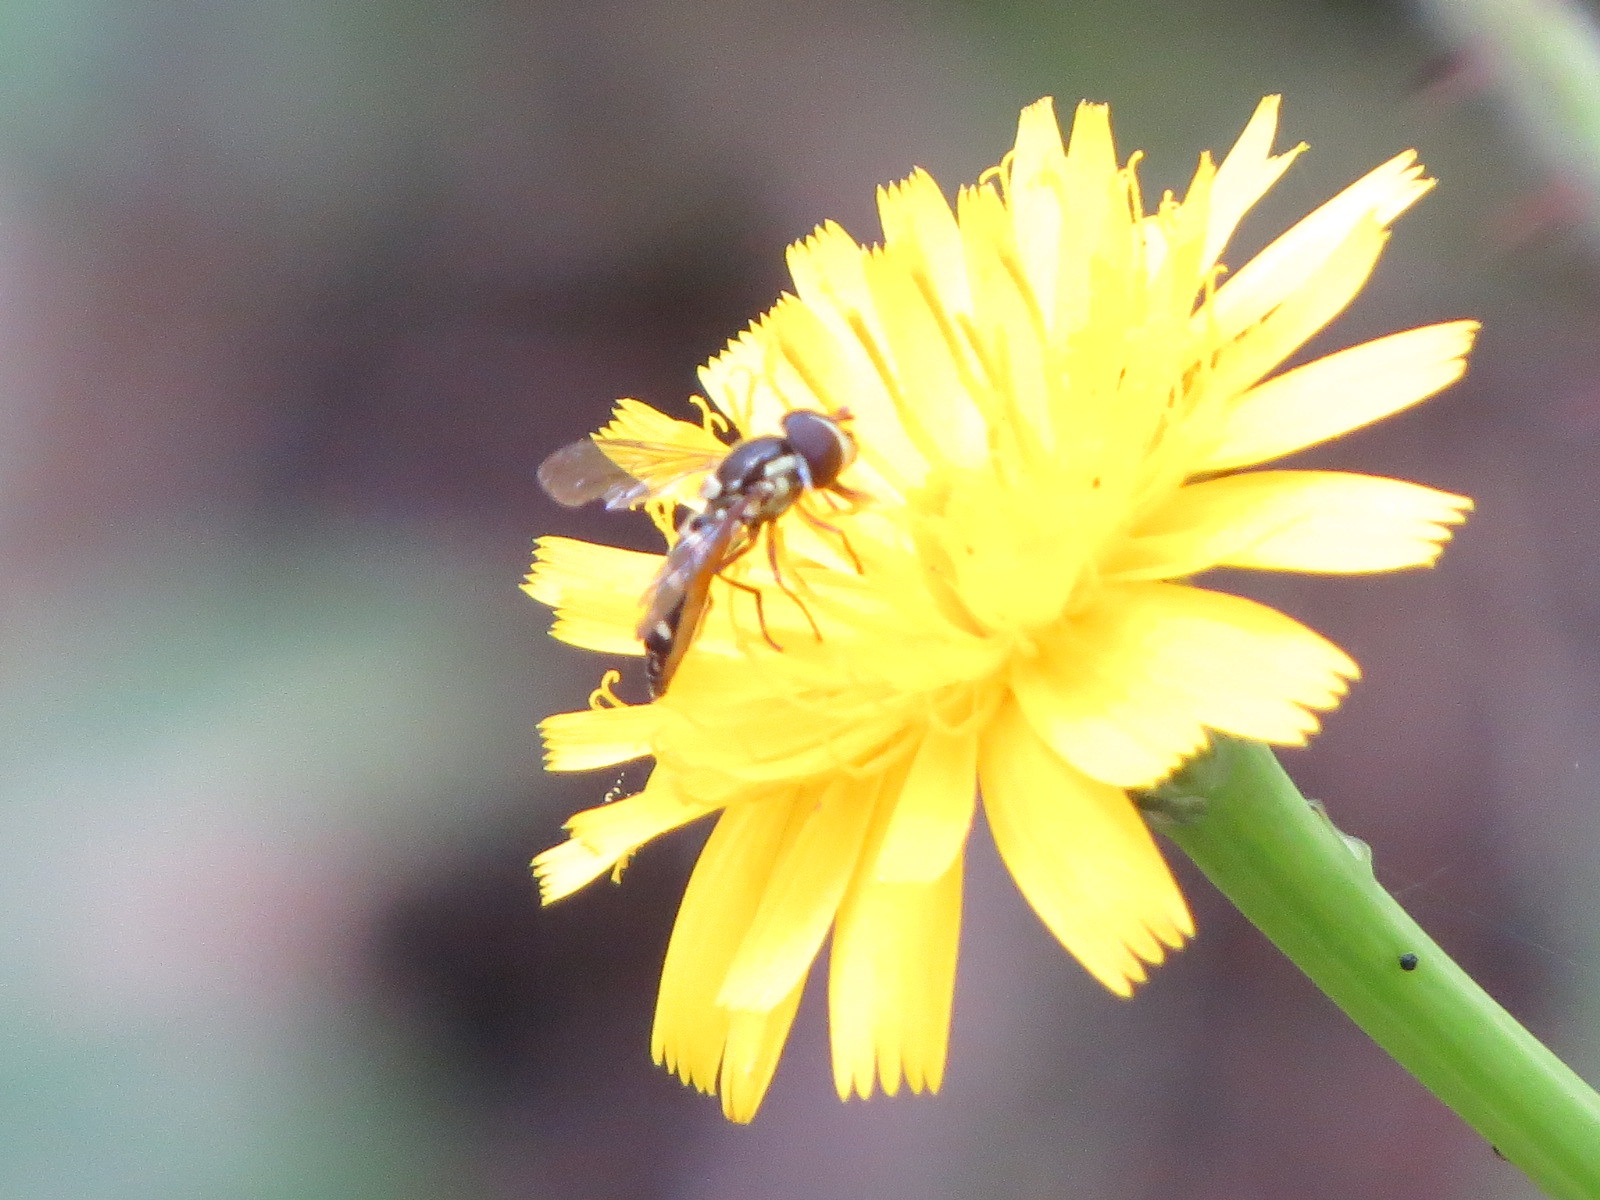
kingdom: Animalia
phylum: Arthropoda
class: Insecta
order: Diptera
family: Syrphidae
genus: Fazia
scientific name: Fazia micrura
